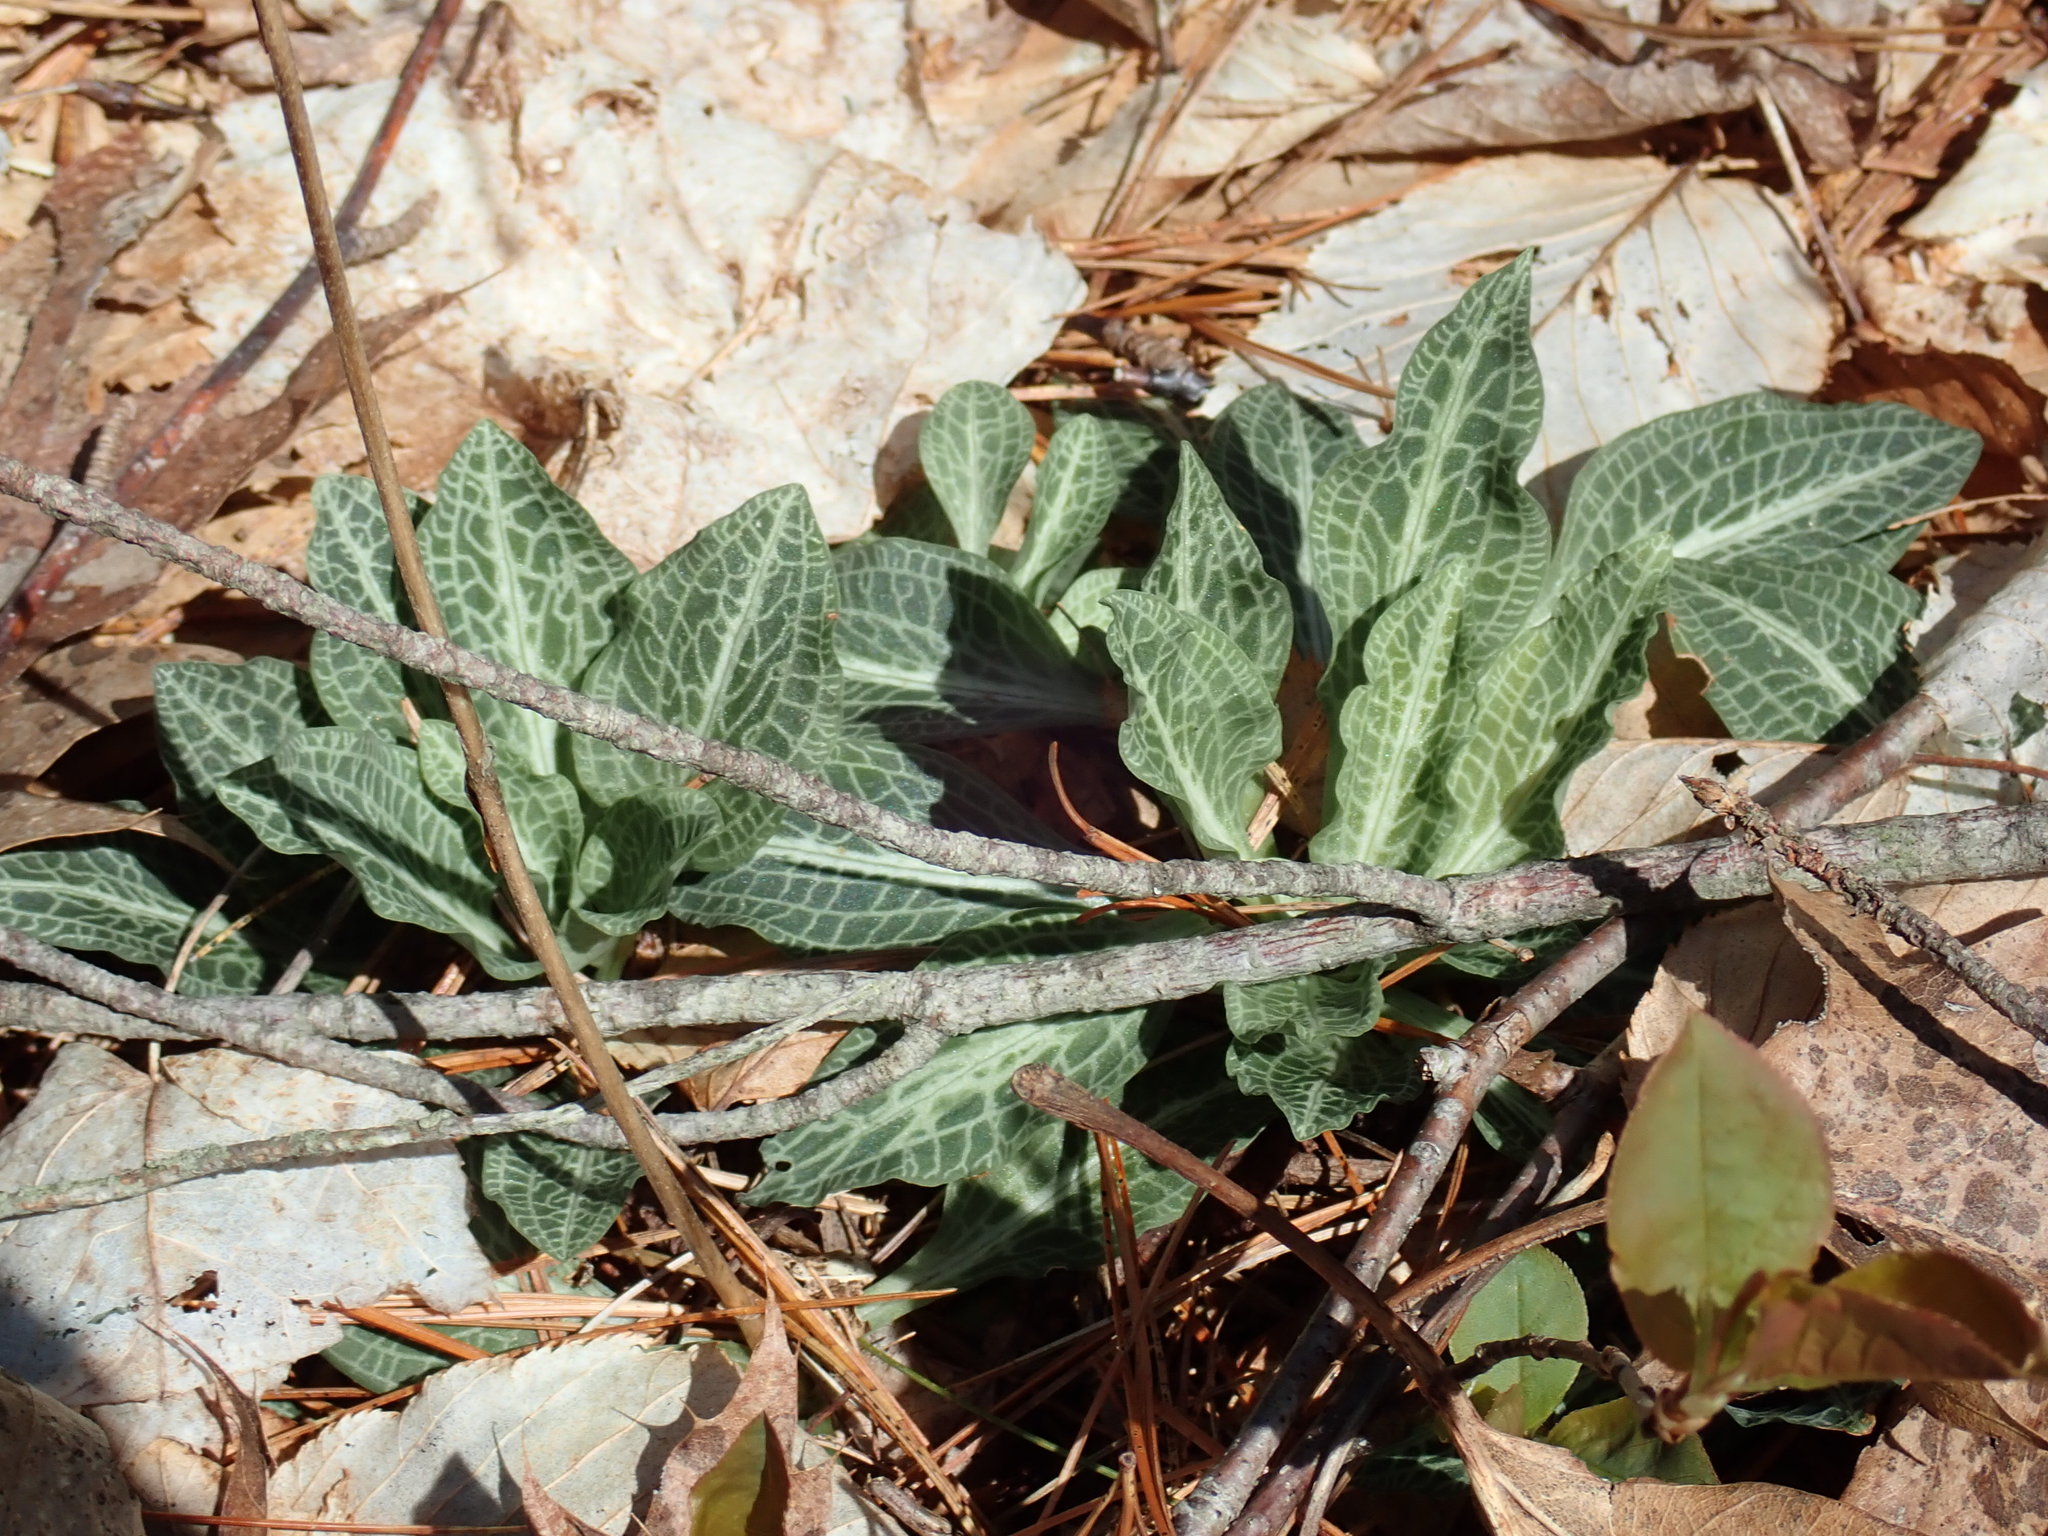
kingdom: Plantae
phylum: Tracheophyta
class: Liliopsida
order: Asparagales
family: Orchidaceae
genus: Goodyera
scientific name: Goodyera pubescens
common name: Downy rattlesnake-plantain
